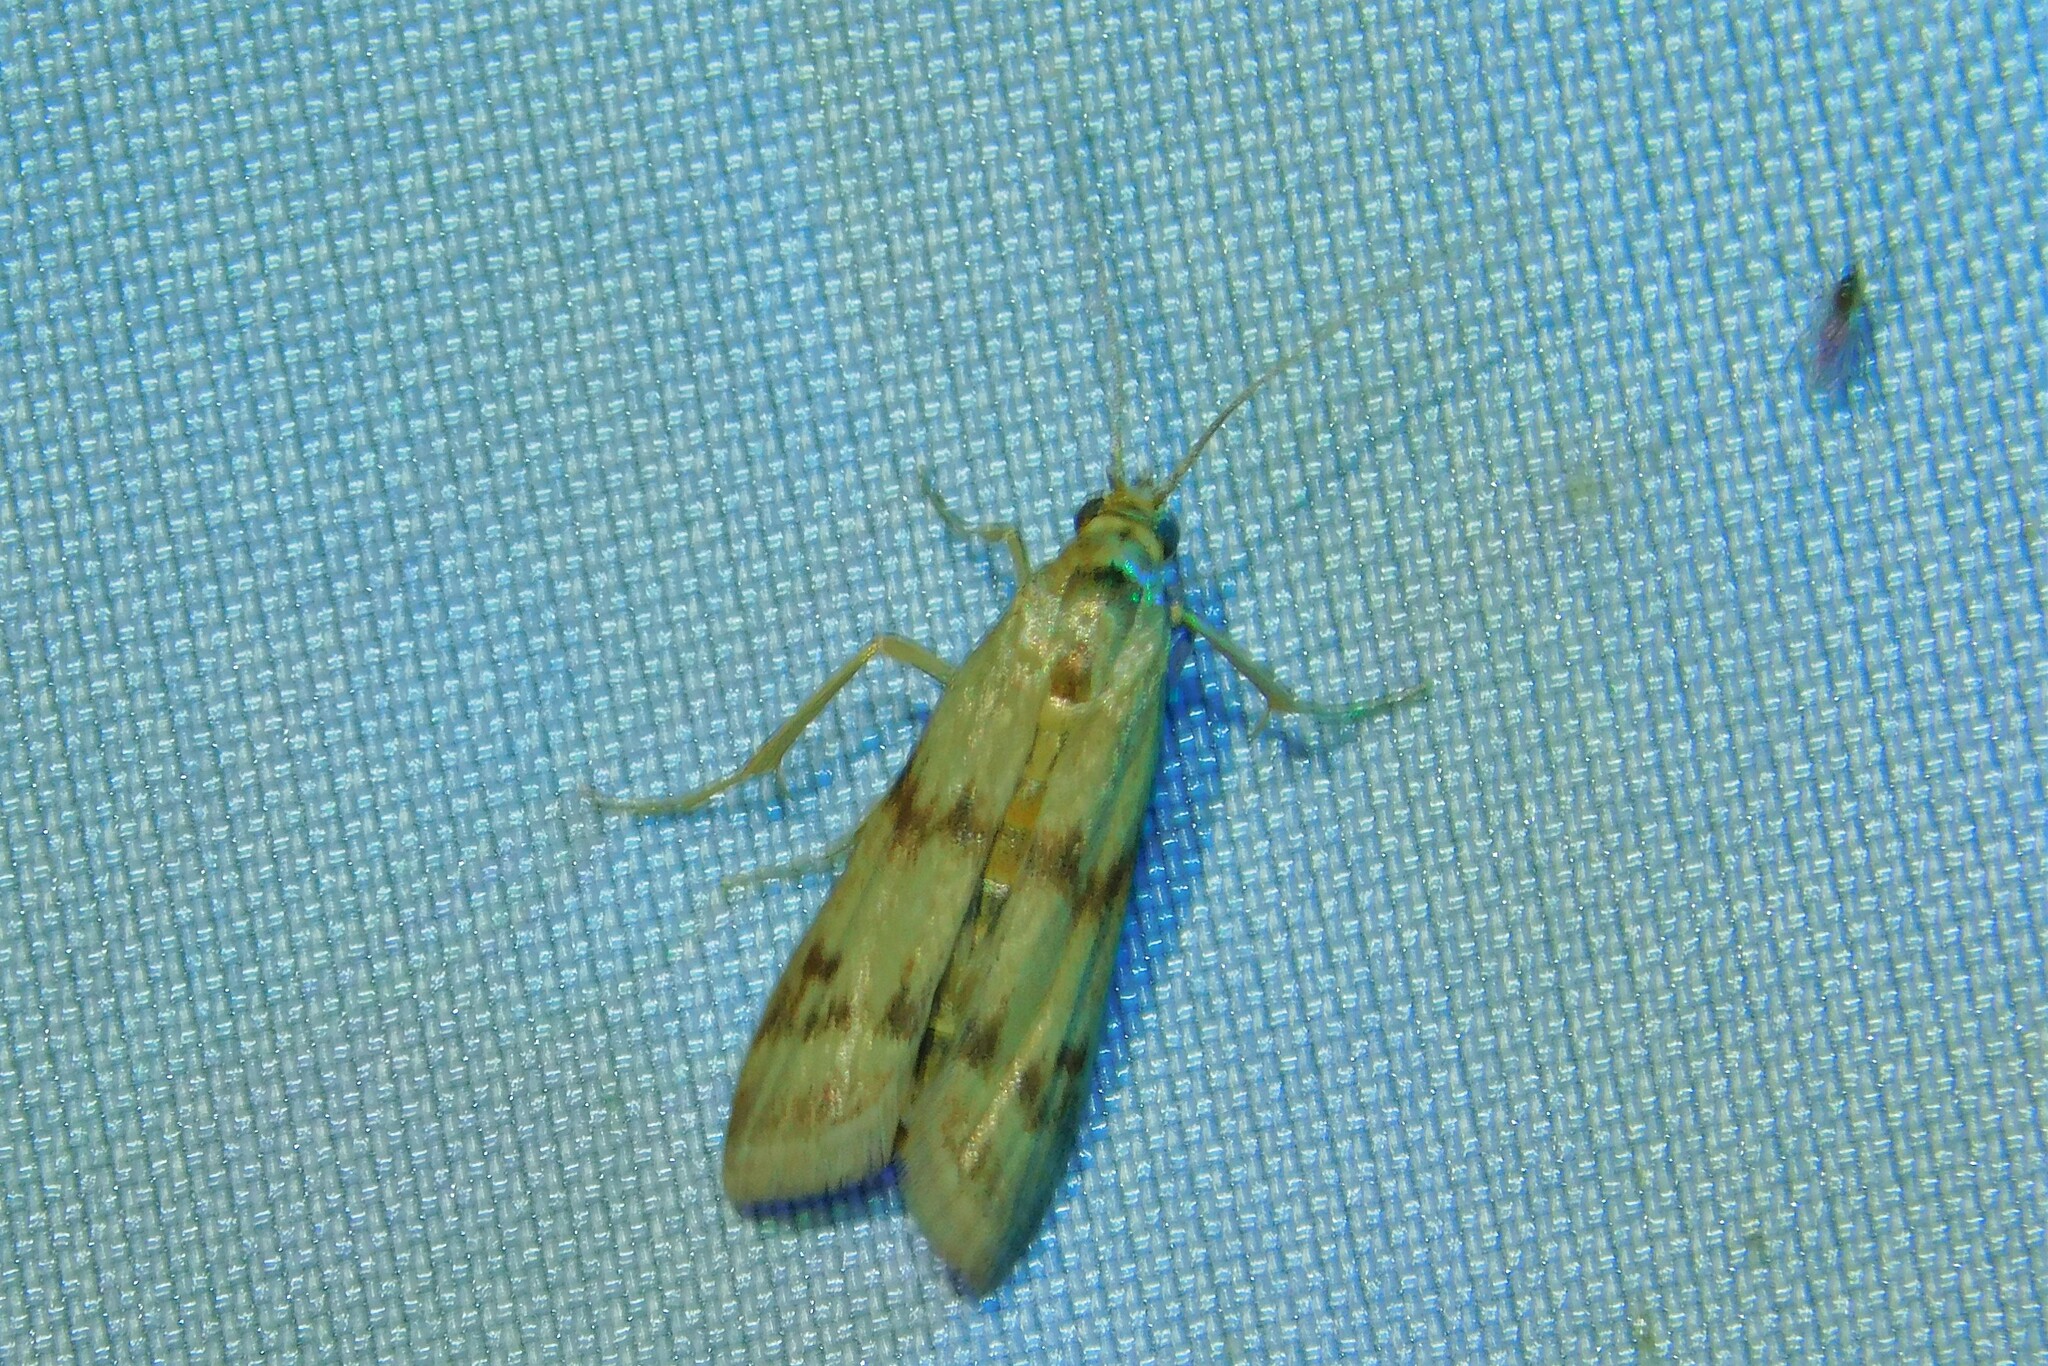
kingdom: Animalia
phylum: Arthropoda
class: Insecta
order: Lepidoptera
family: Pyralidae
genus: Homoeosoma
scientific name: Homoeosoma sinuella
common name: Twin-barred knot-horn
